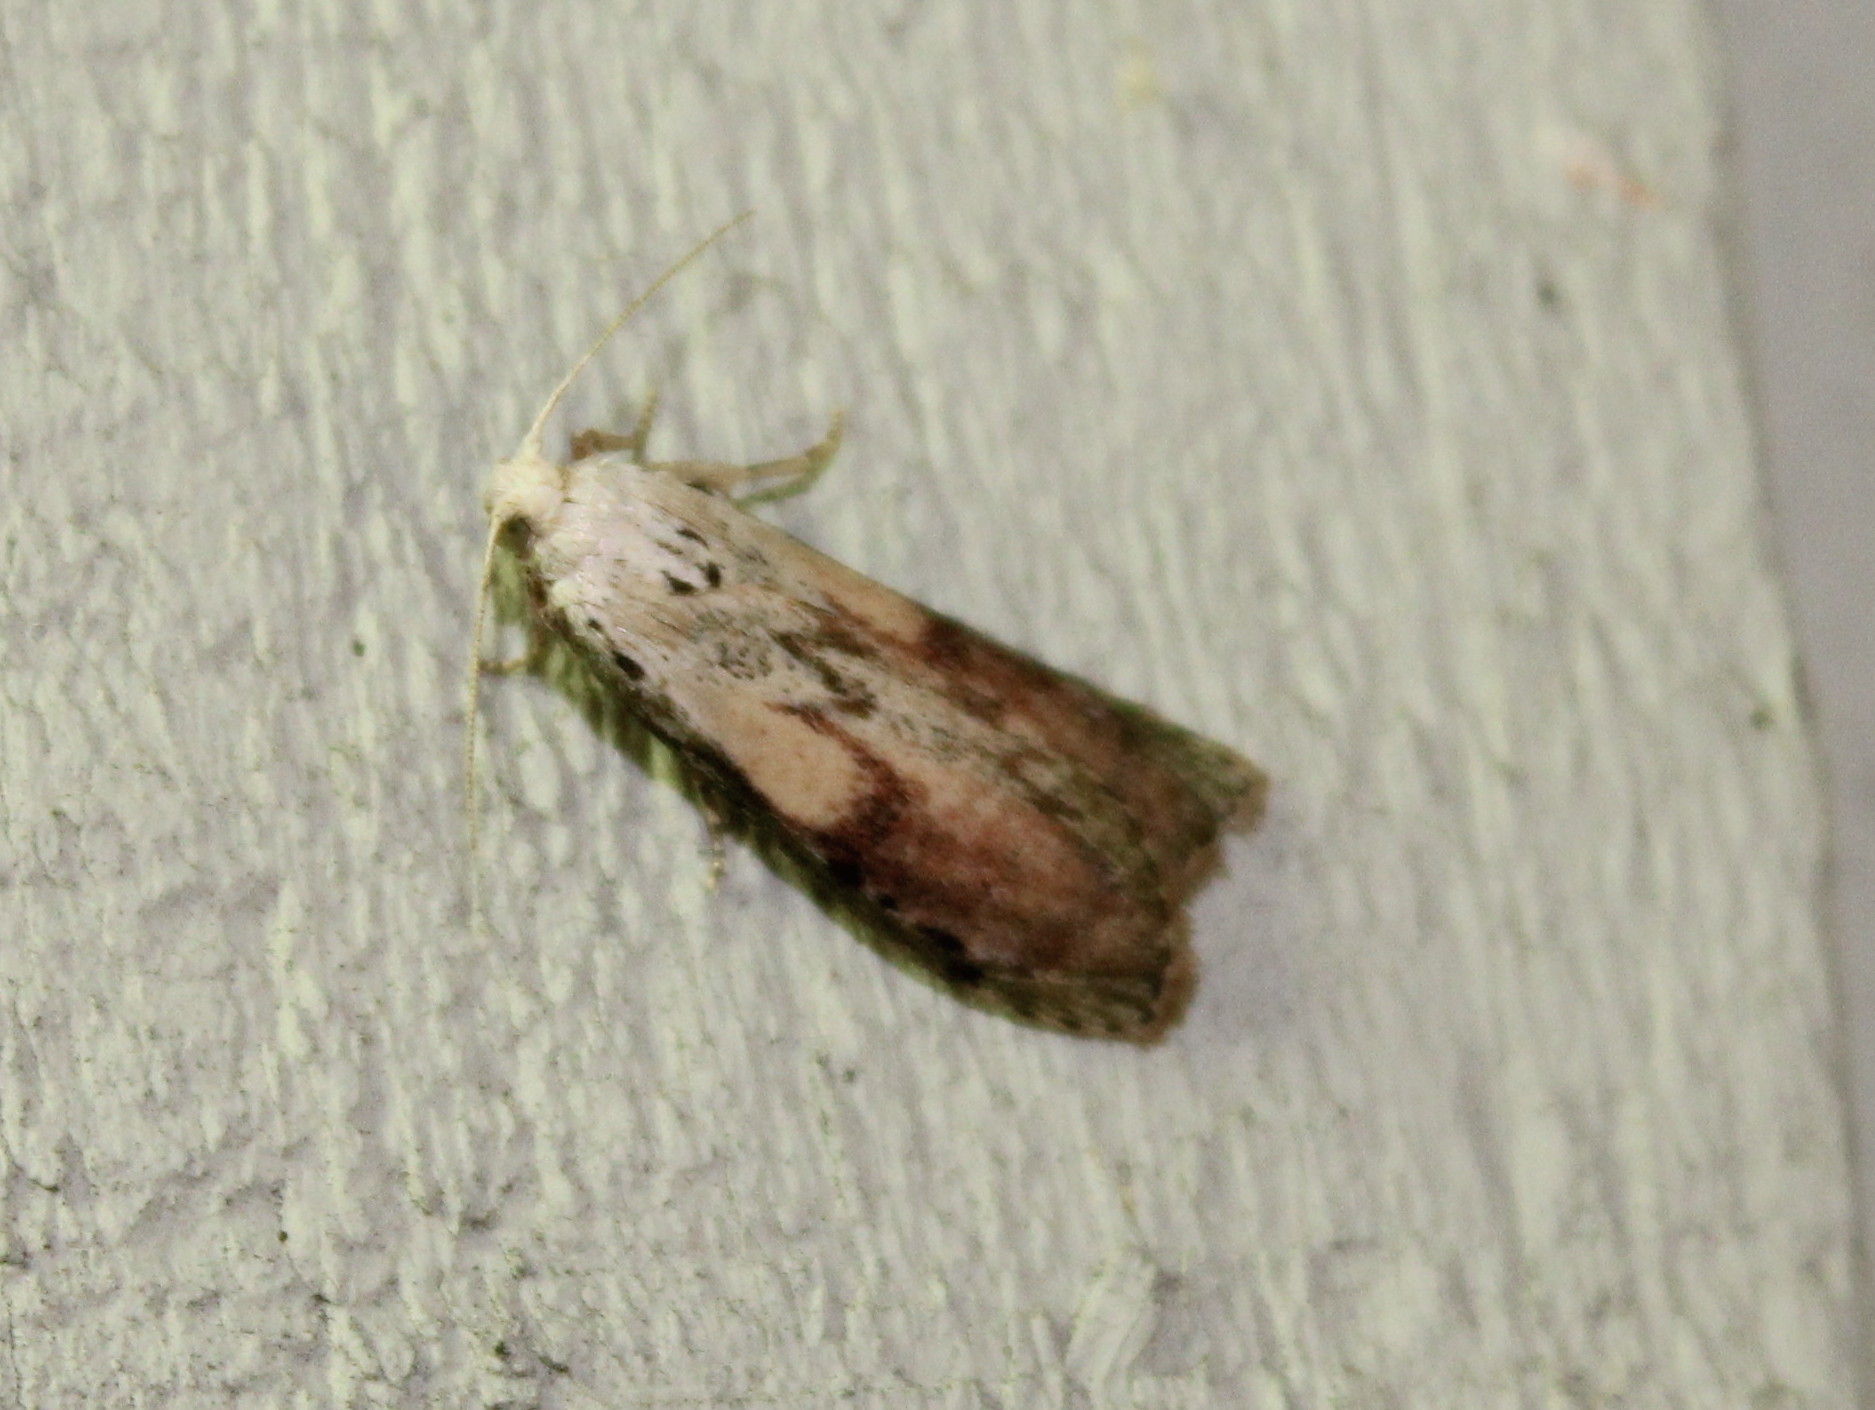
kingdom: Animalia
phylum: Arthropoda
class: Insecta
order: Lepidoptera
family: Pyralidae
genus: Aphomia
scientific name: Aphomia sociella
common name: Bee moth
